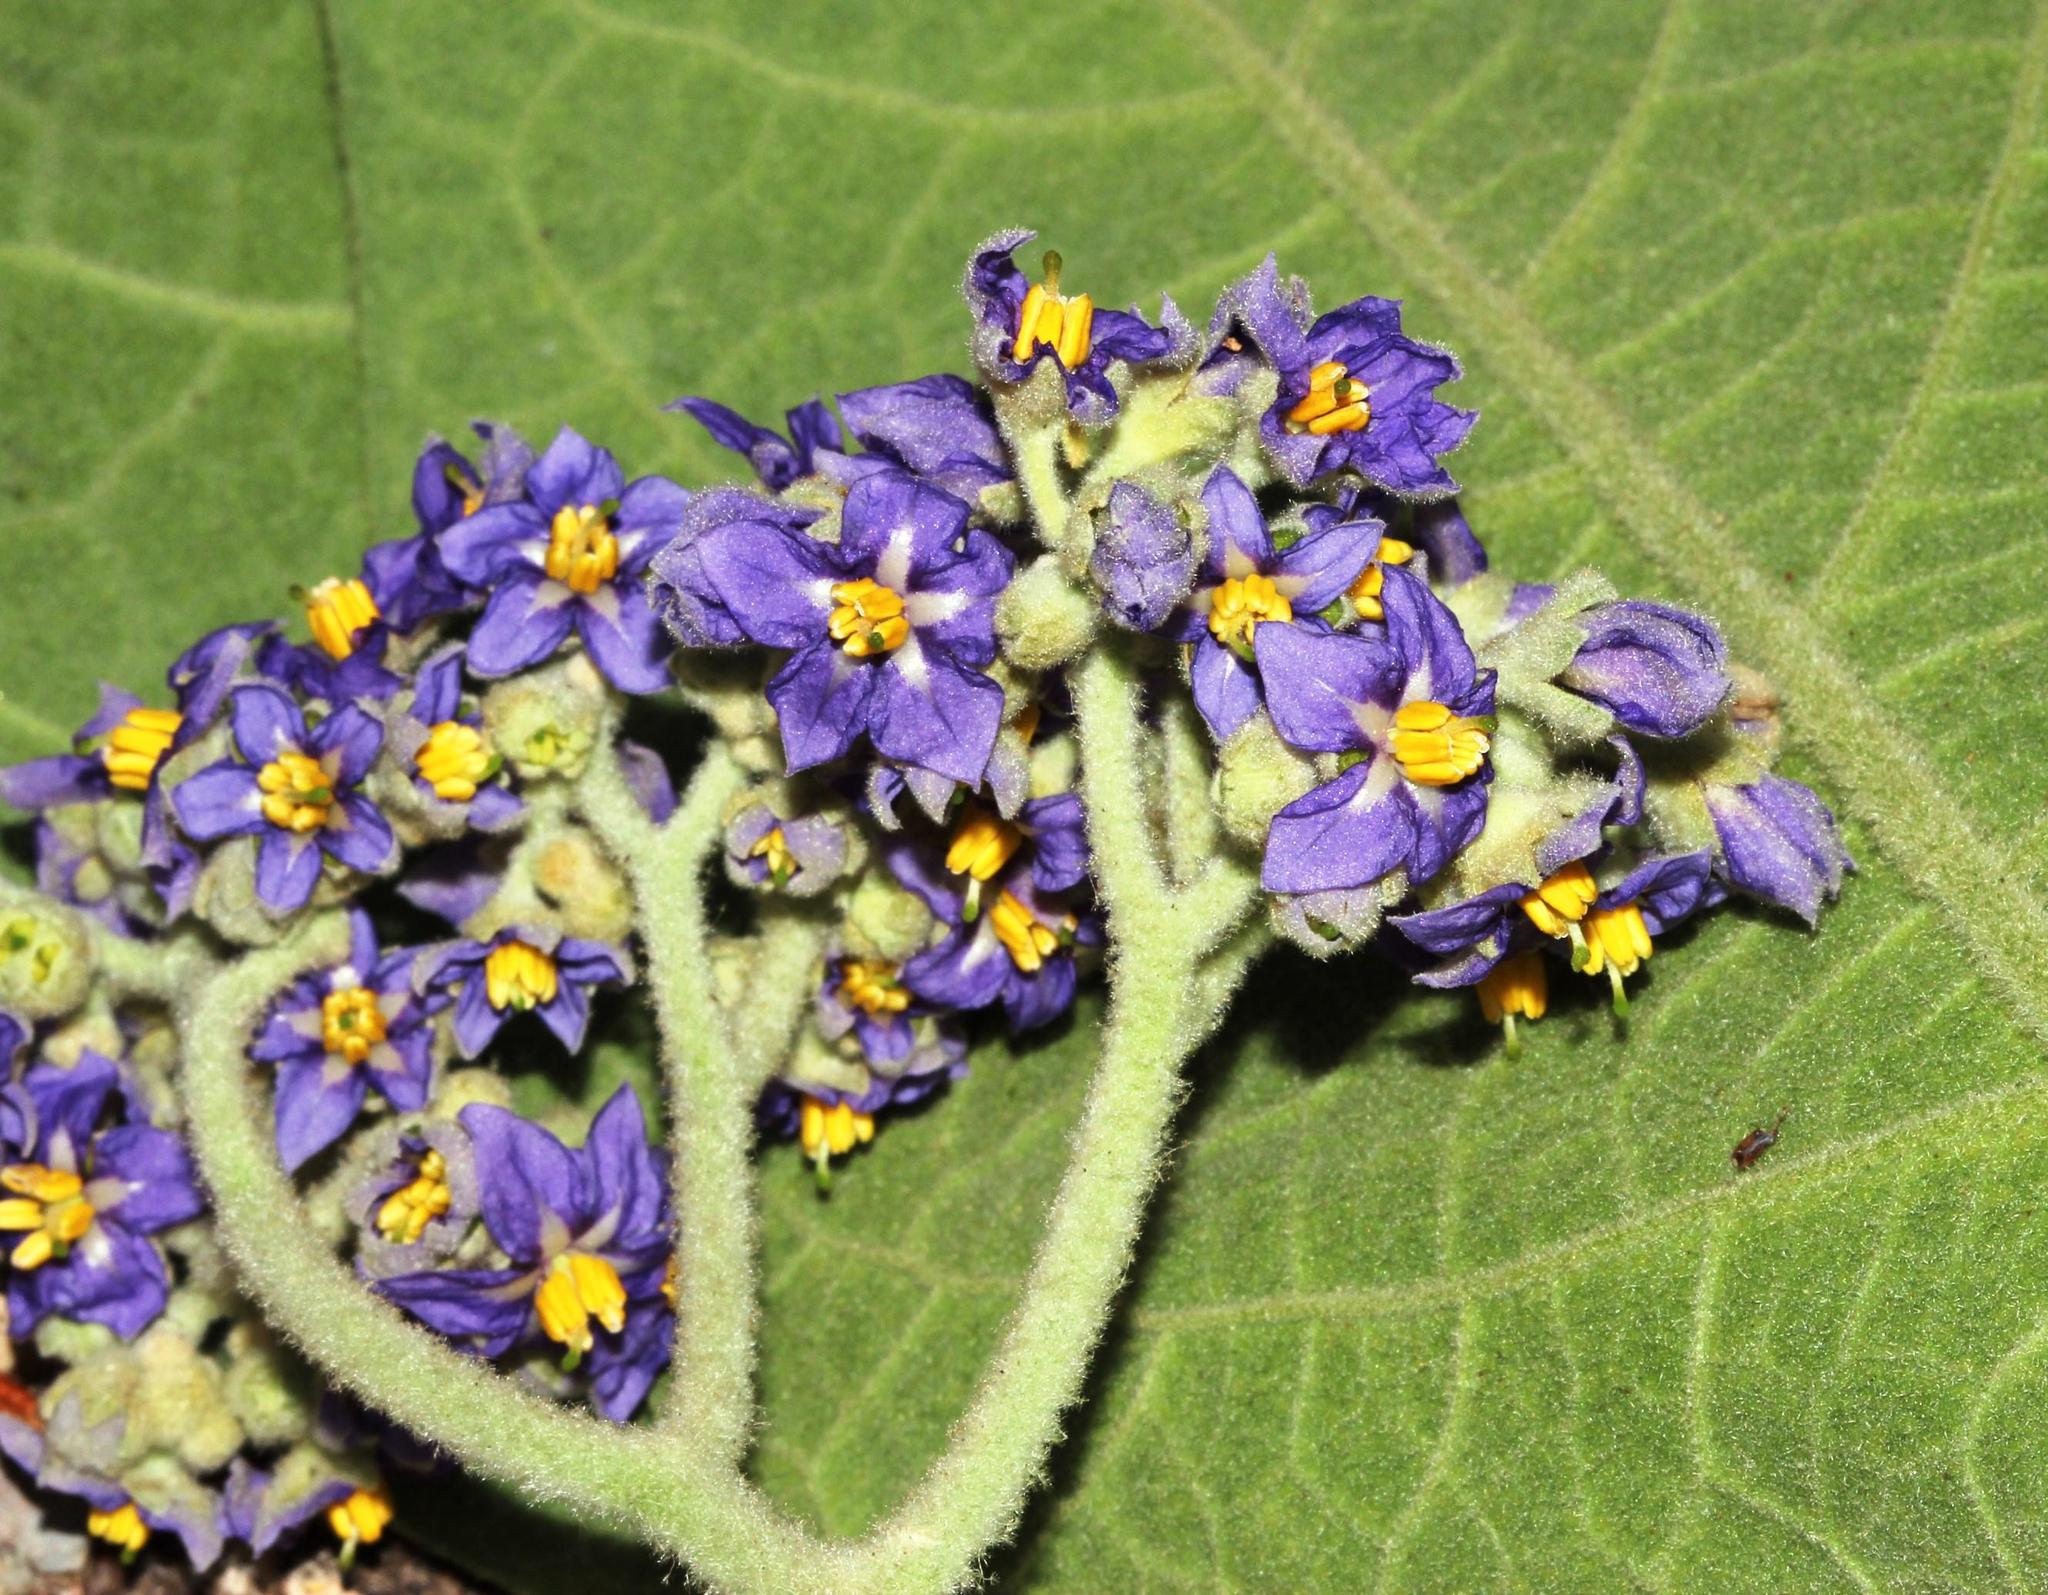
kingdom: Plantae
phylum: Tracheophyta
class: Magnoliopsida
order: Solanales
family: Solanaceae
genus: Solanum
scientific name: Solanum mauritianum
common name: Earleaf nightshade
